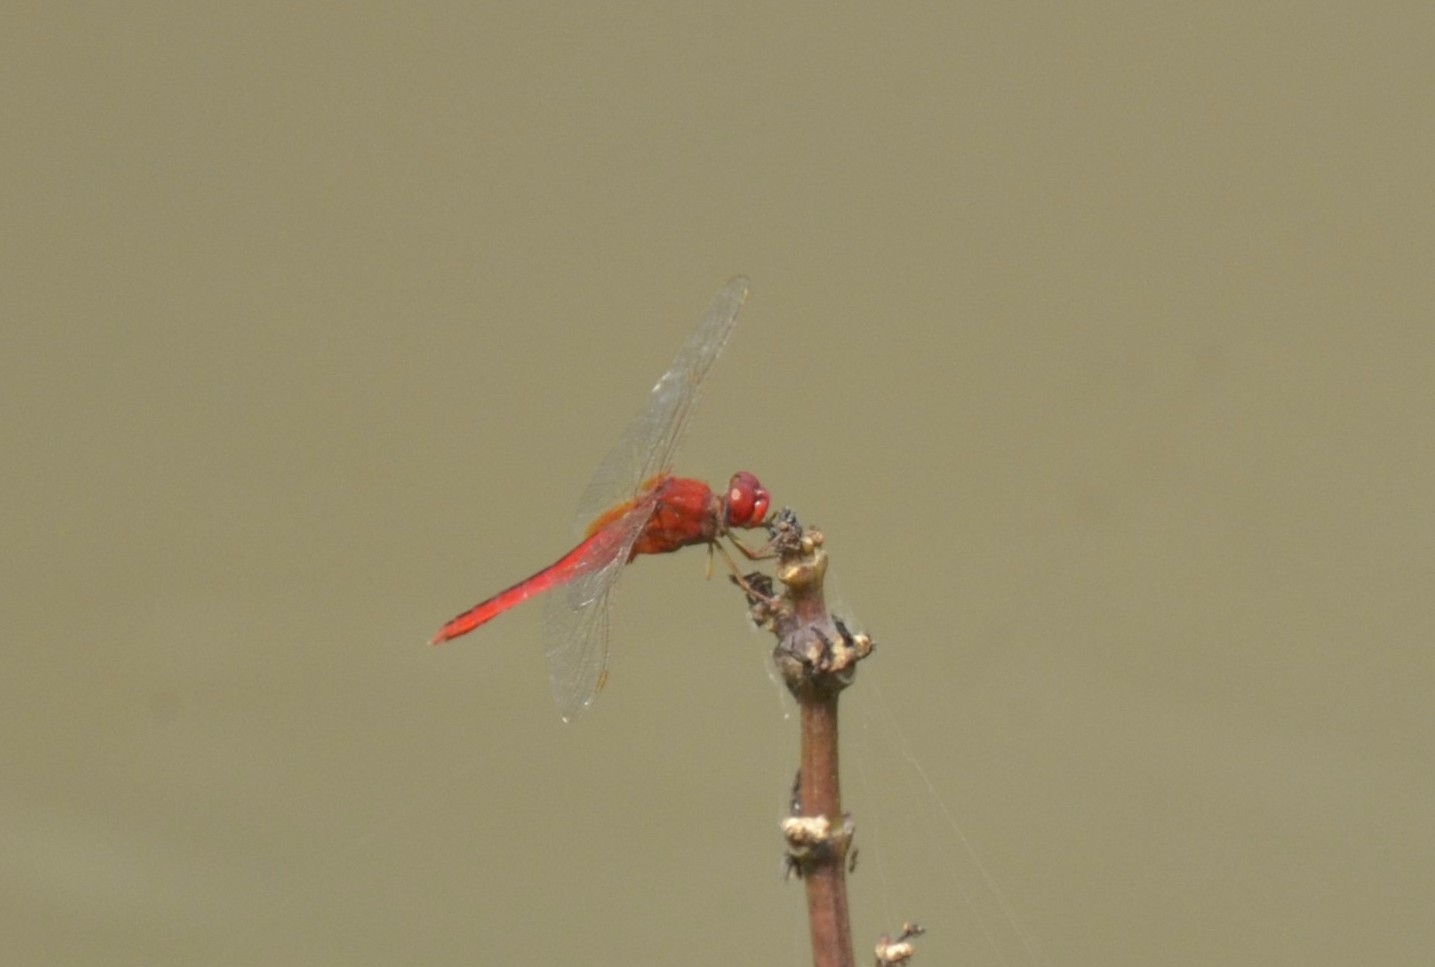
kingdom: Animalia
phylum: Arthropoda
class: Insecta
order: Odonata
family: Libellulidae
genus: Crocothemis
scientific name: Crocothemis servilia
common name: Scarlet skimmer
